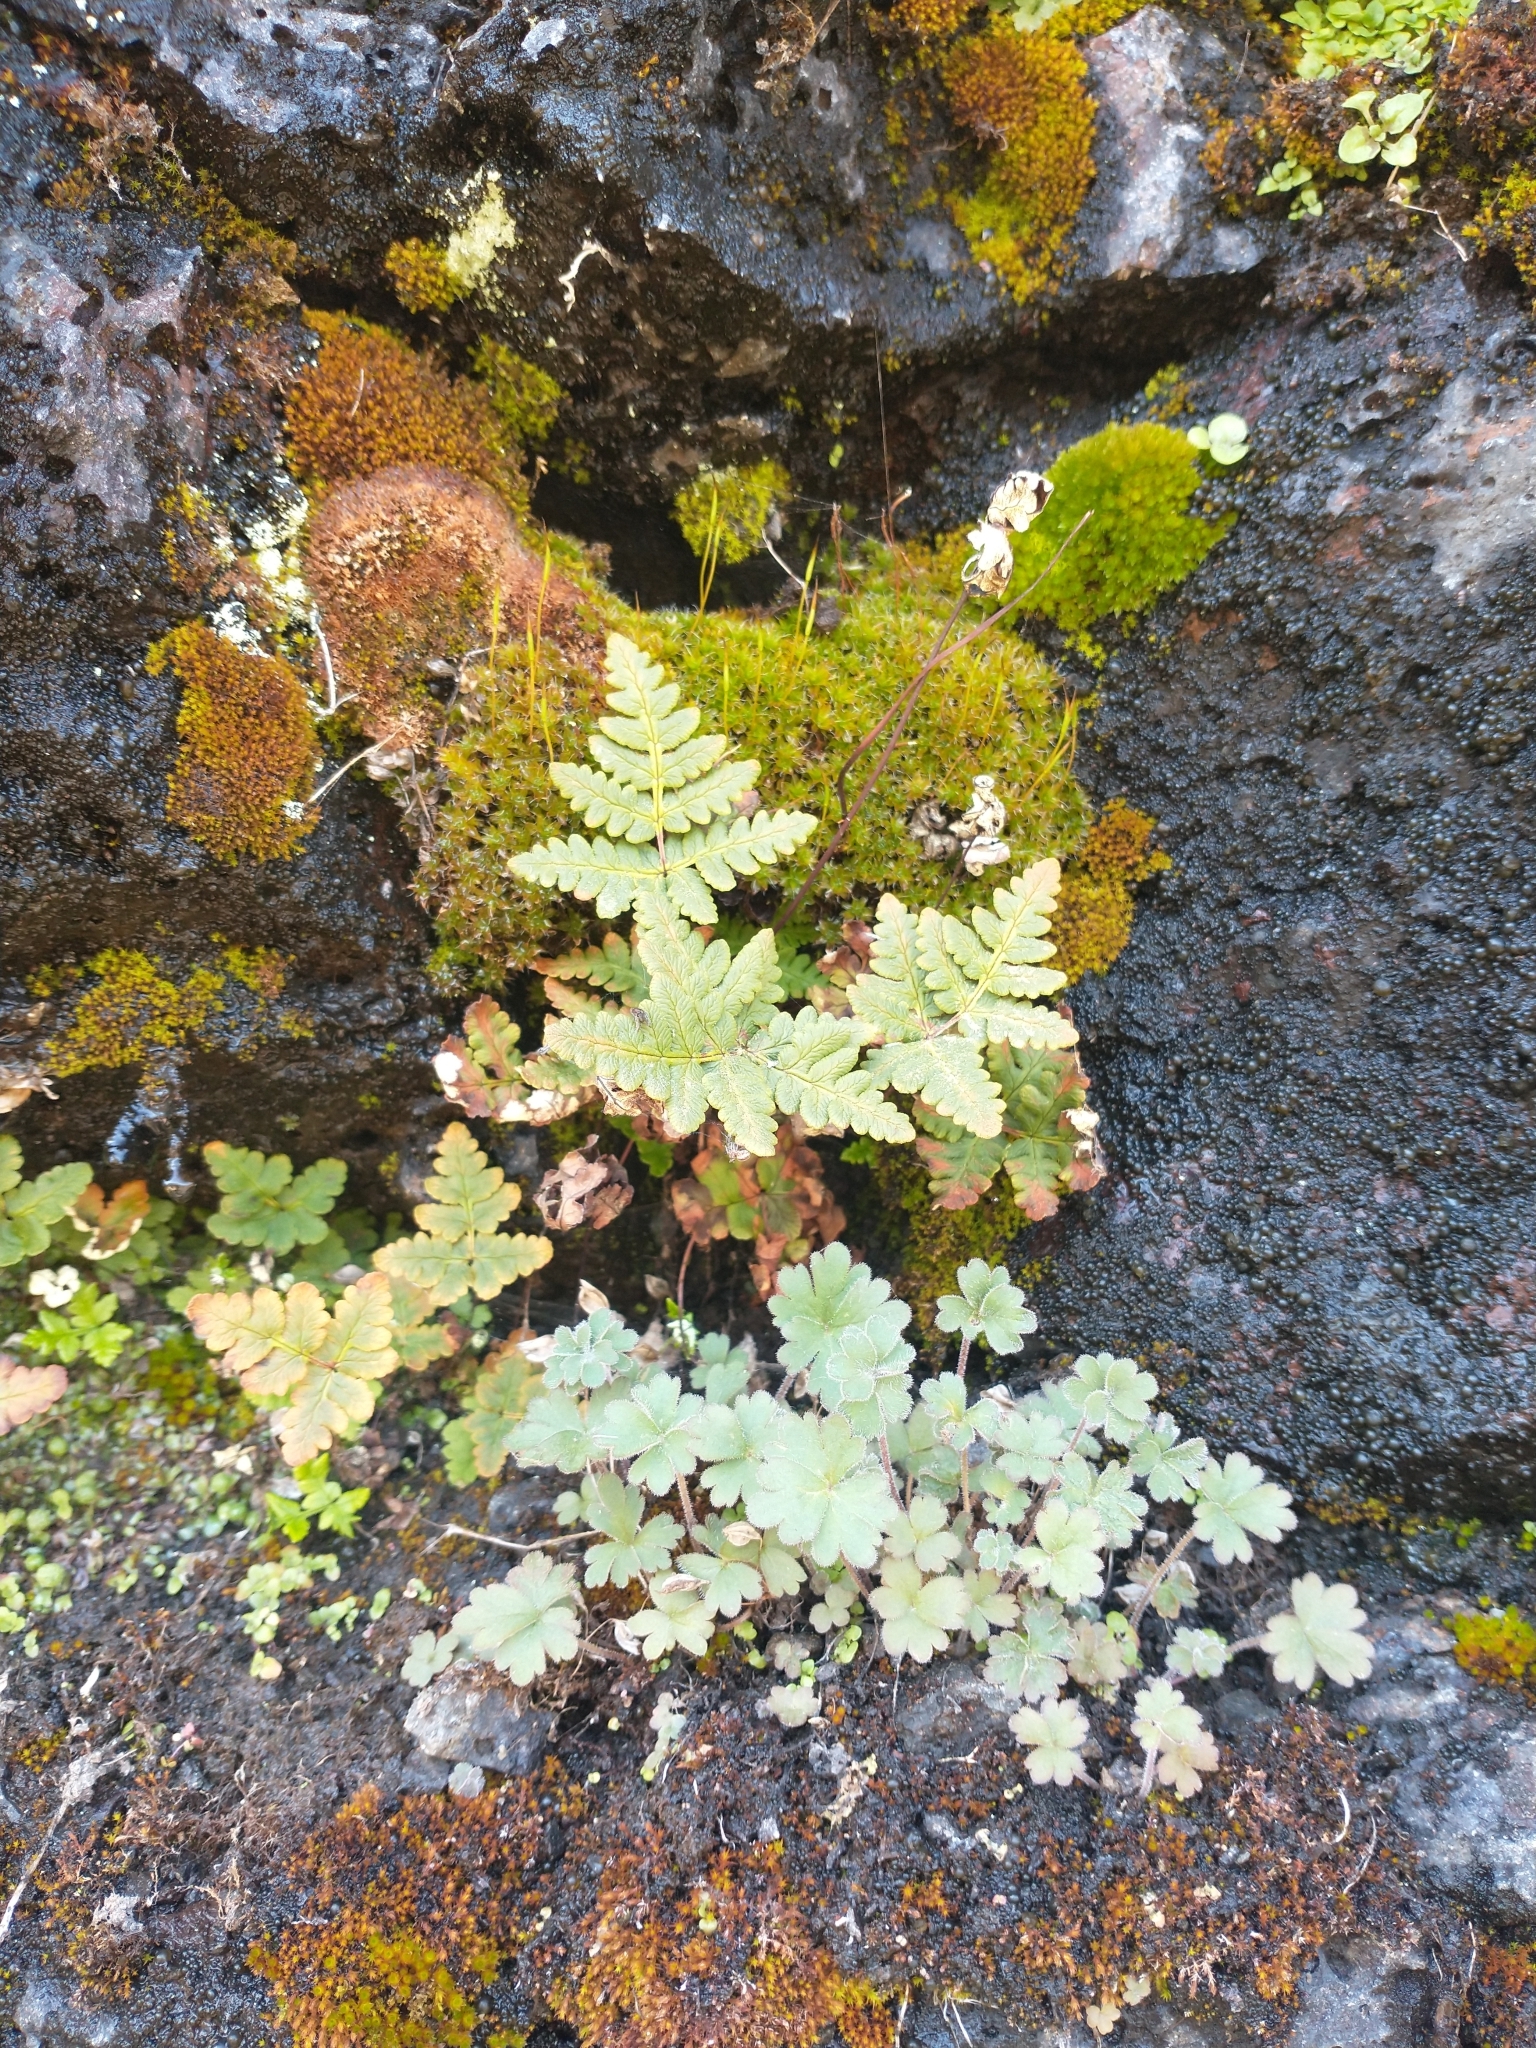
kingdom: Plantae
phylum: Tracheophyta
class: Polypodiopsida
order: Polypodiales
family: Pteridaceae
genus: Pentagramma
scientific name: Pentagramma triangularis
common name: Gold fern
